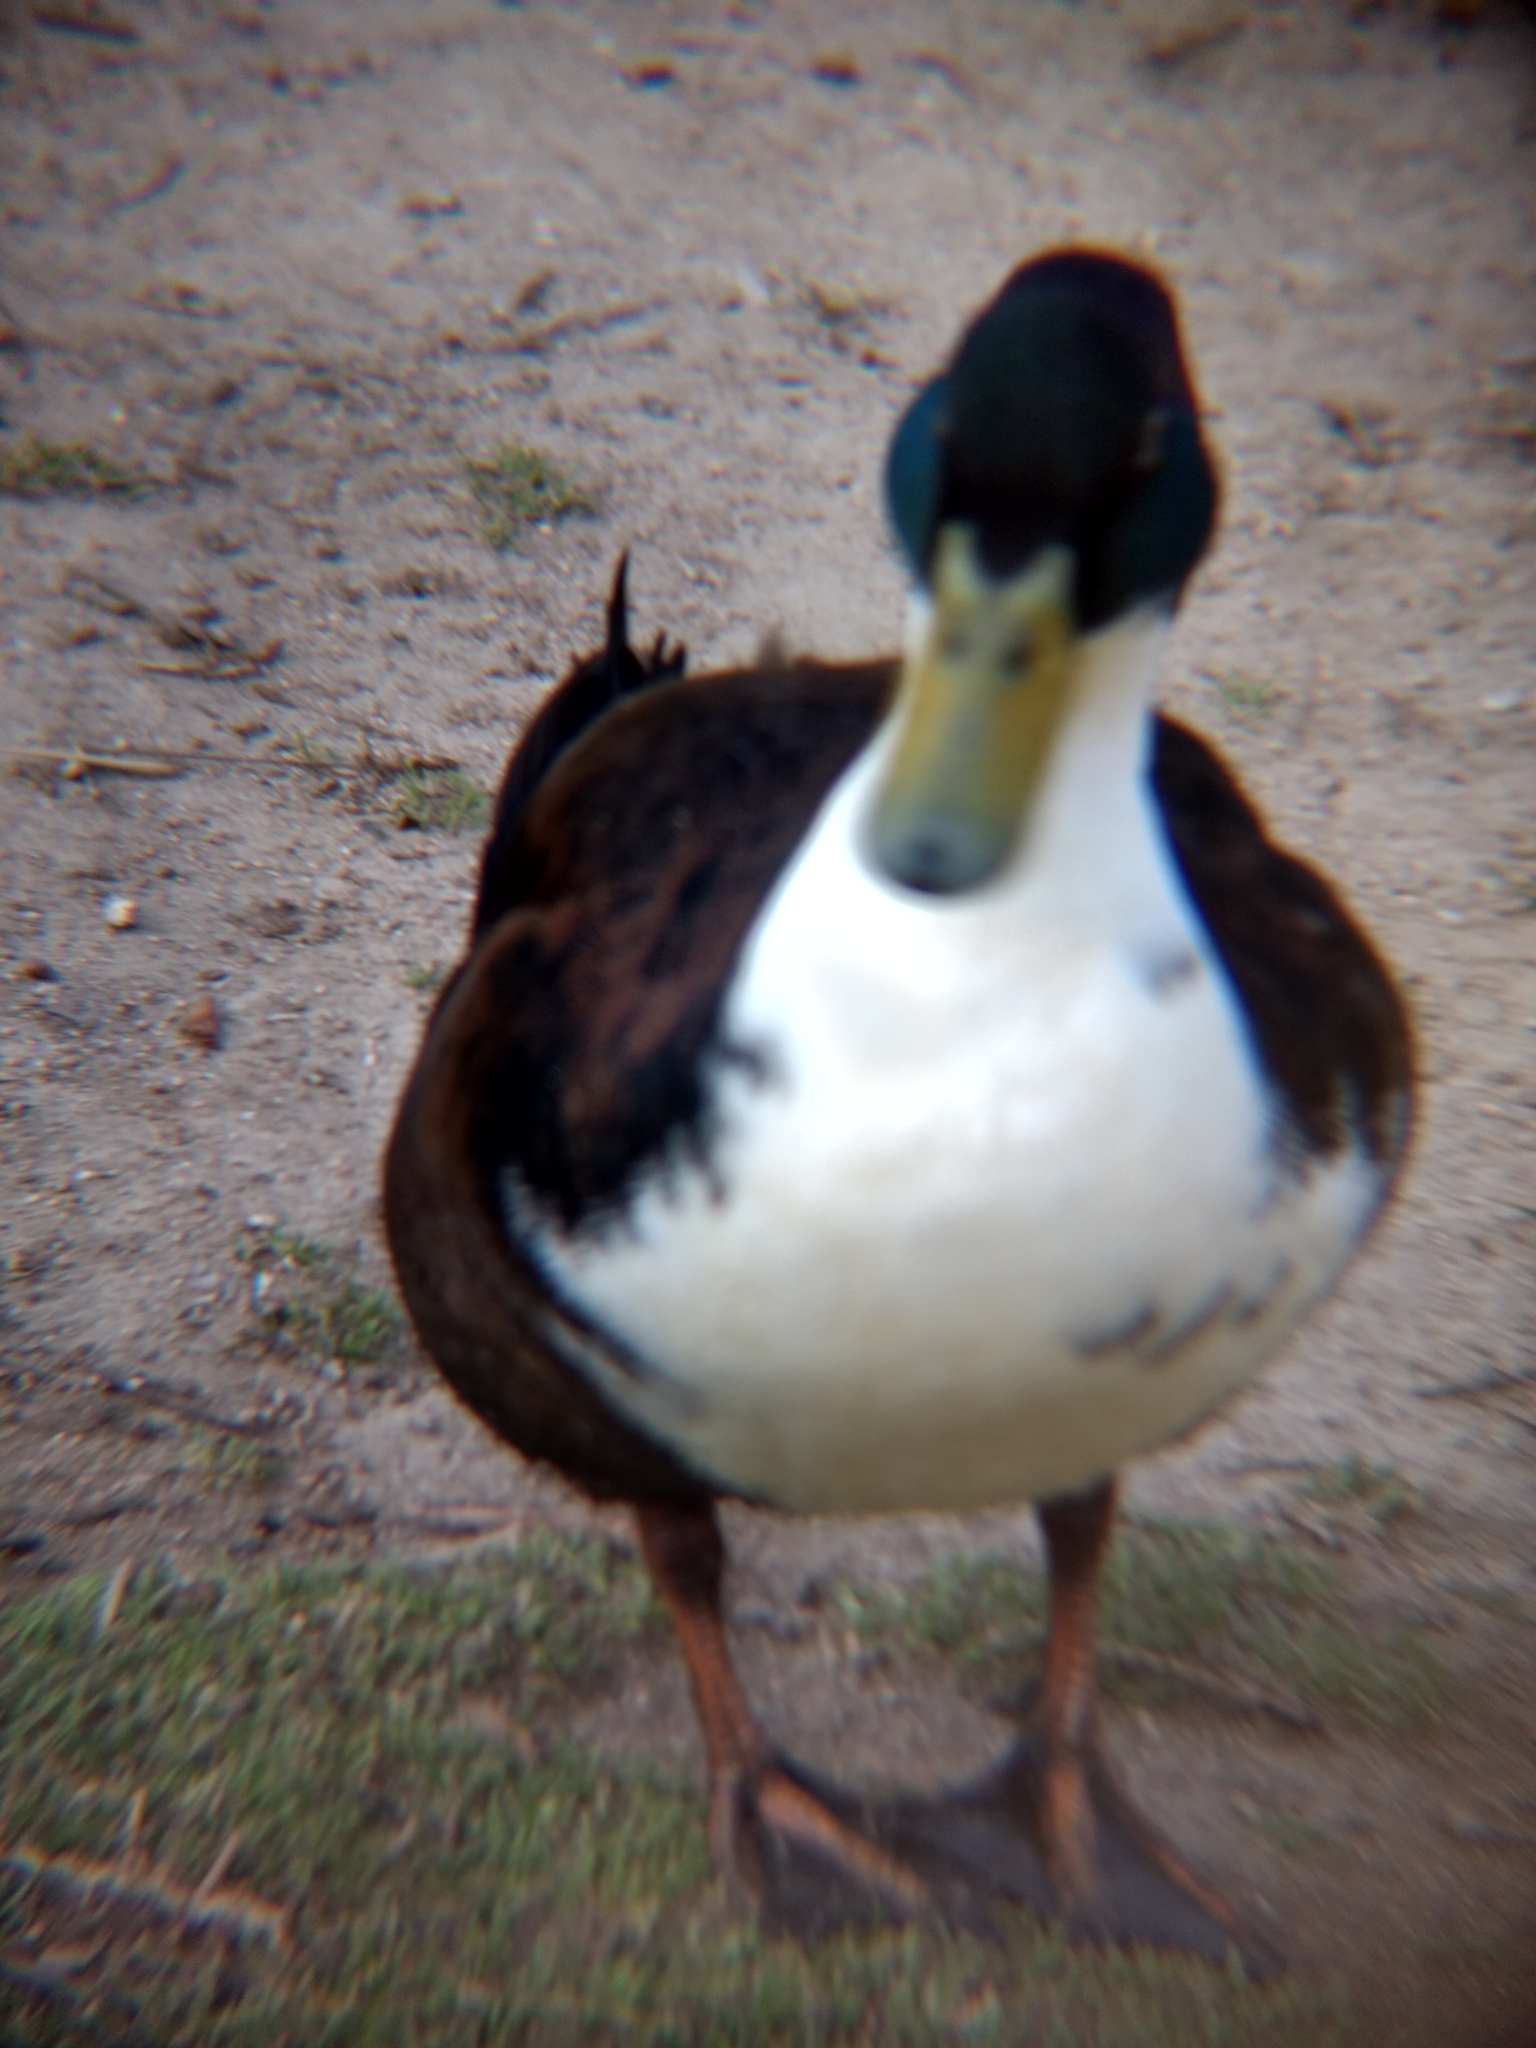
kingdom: Animalia
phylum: Chordata
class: Aves
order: Anseriformes
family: Anatidae
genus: Anas
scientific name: Anas platyrhynchos
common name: Mallard
